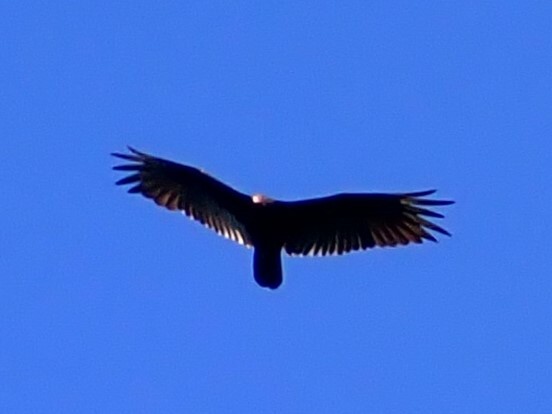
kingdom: Animalia
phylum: Chordata
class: Aves
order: Accipitriformes
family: Cathartidae
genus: Cathartes
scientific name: Cathartes aura
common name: Turkey vulture
